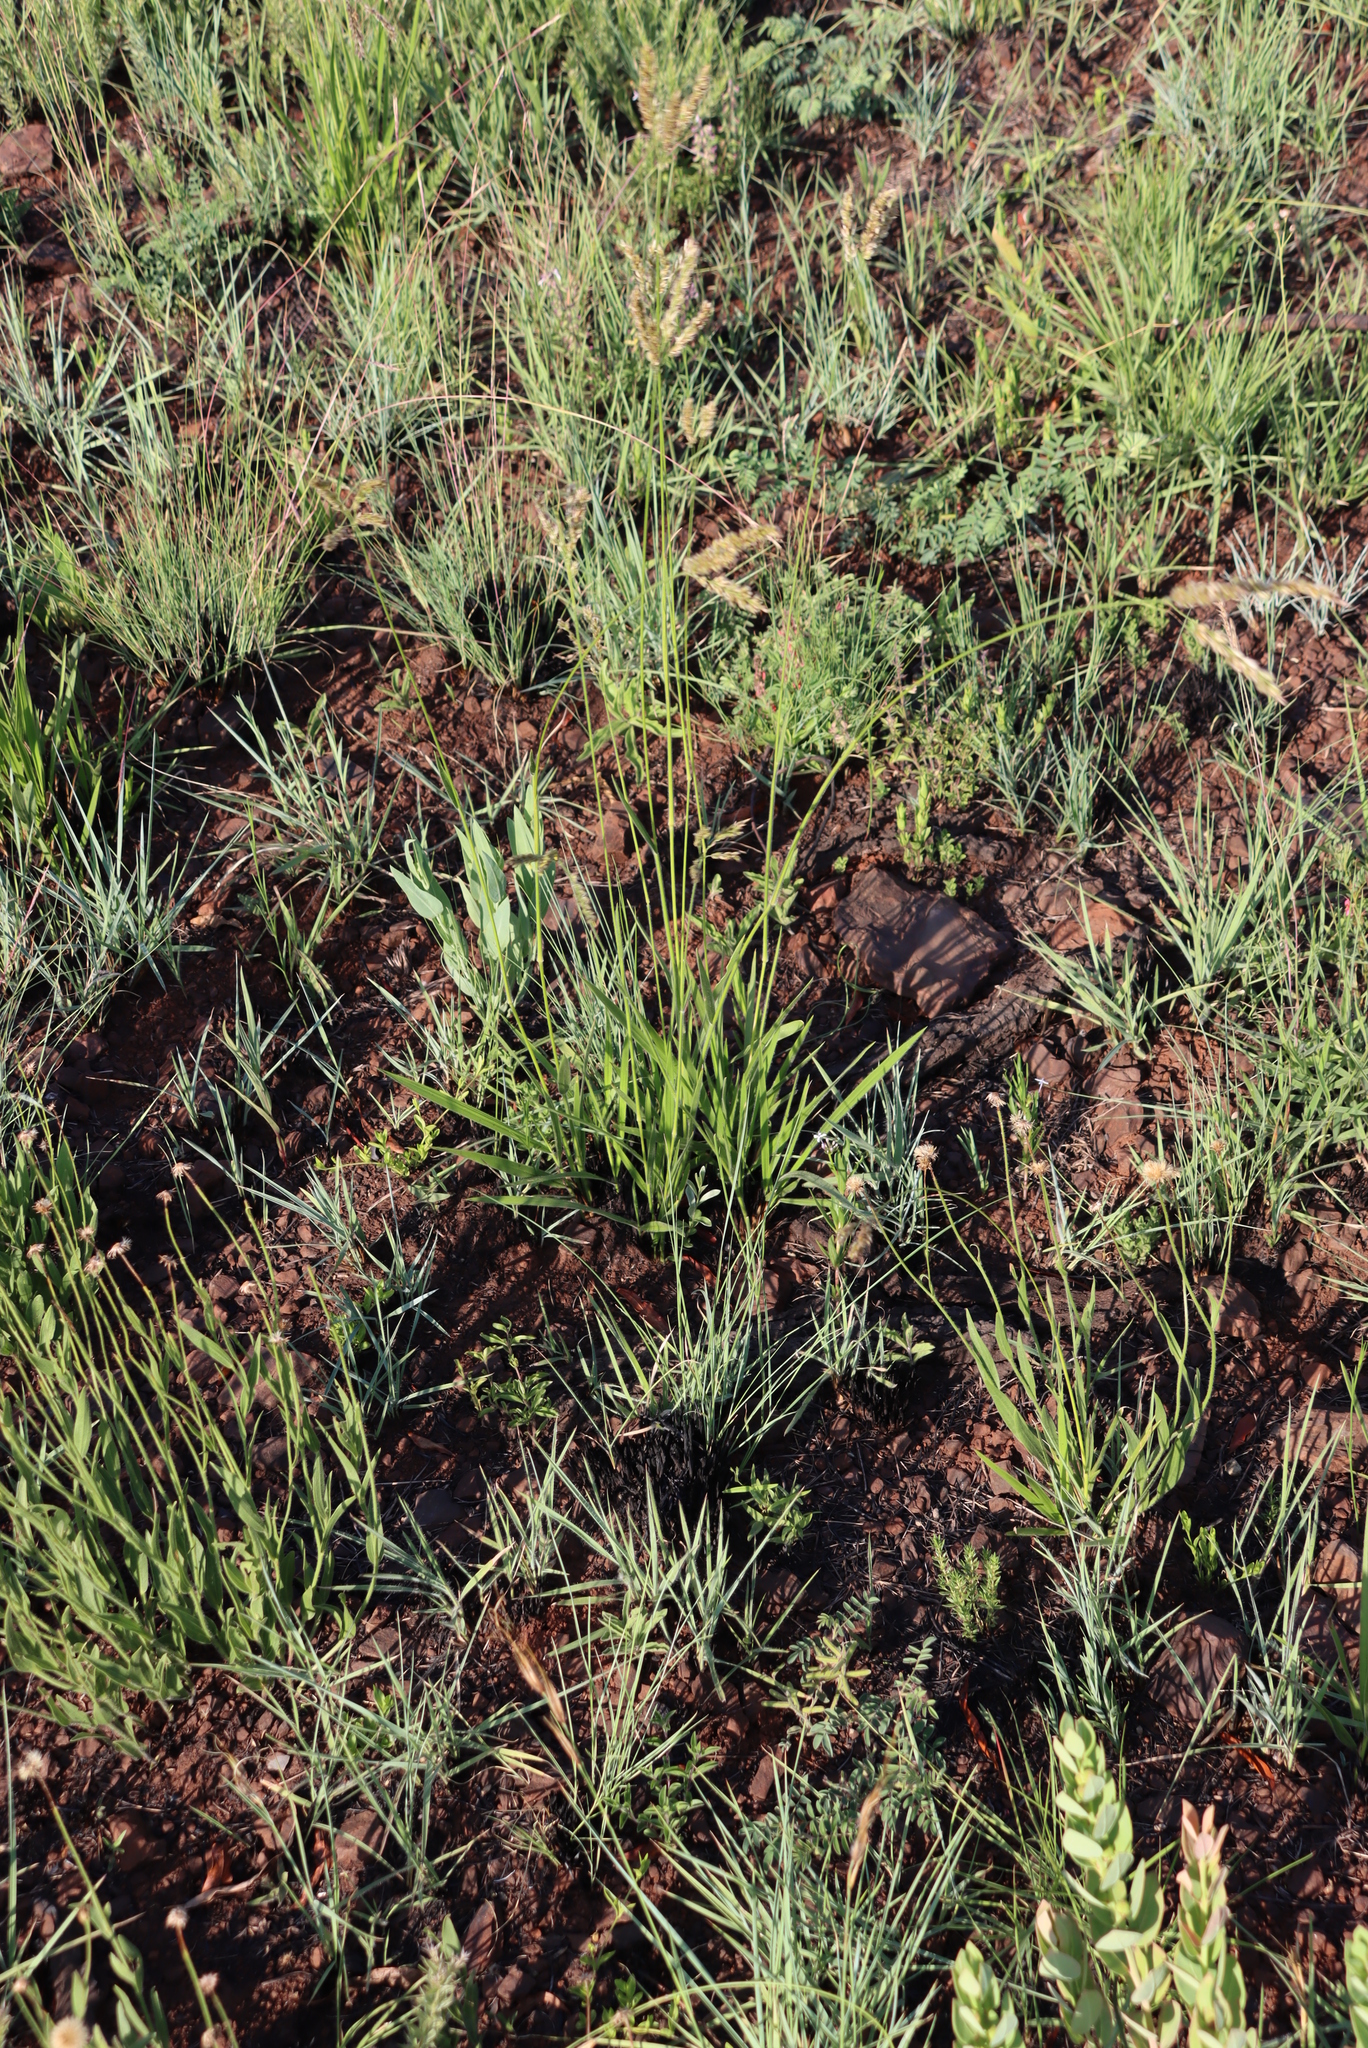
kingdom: Plantae
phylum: Tracheophyta
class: Liliopsida
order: Poales
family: Poaceae
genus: Alloteropsis
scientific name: Alloteropsis semialata
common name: Cockatoo grass
